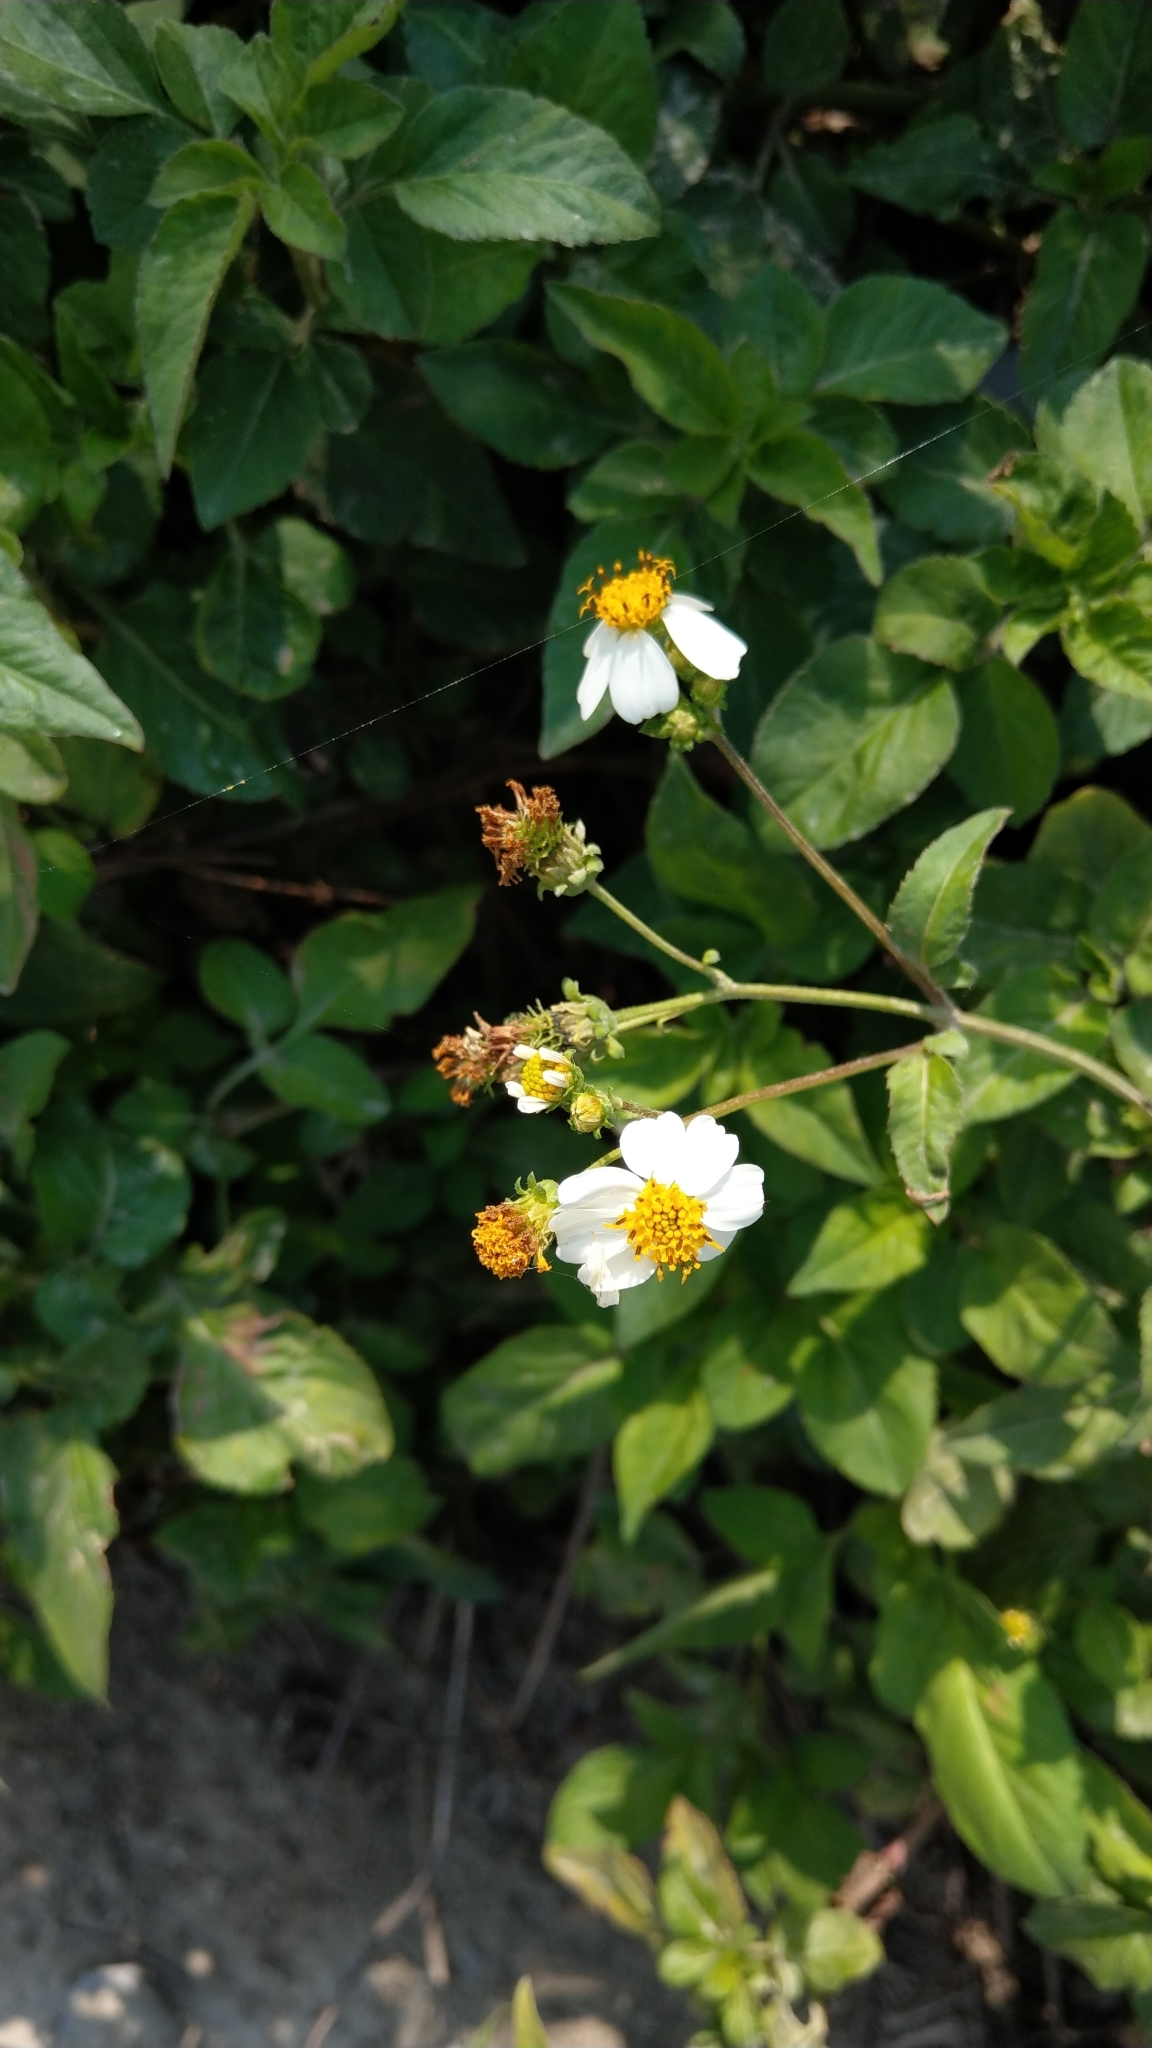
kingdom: Plantae
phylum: Tracheophyta
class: Magnoliopsida
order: Asterales
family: Asteraceae
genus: Bidens
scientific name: Bidens alba
